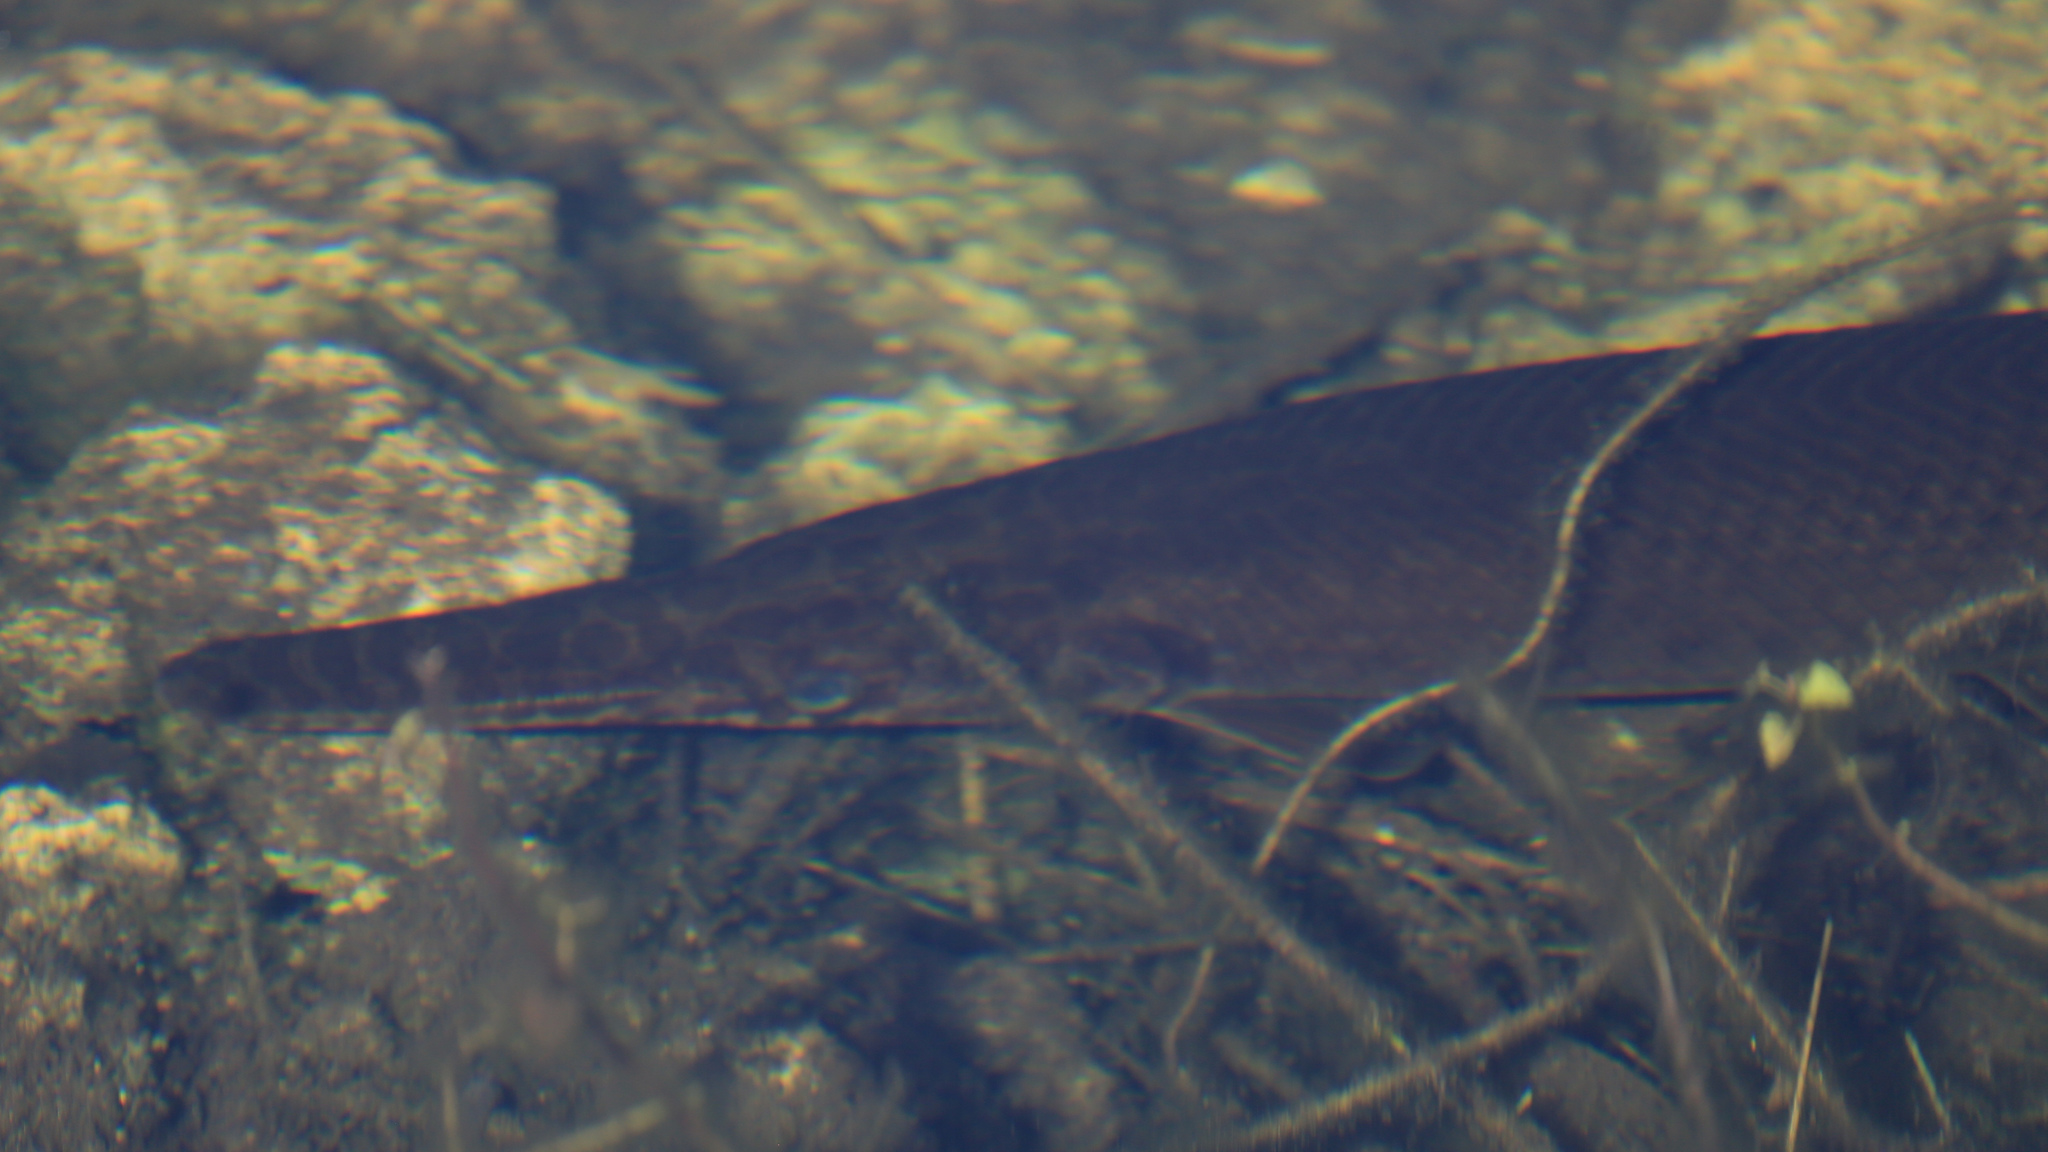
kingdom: Animalia
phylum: Chordata
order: Lepisosteiformes
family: Lepisosteidae
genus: Lepisosteus
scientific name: Lepisosteus platyrhincus
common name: Florida gar
